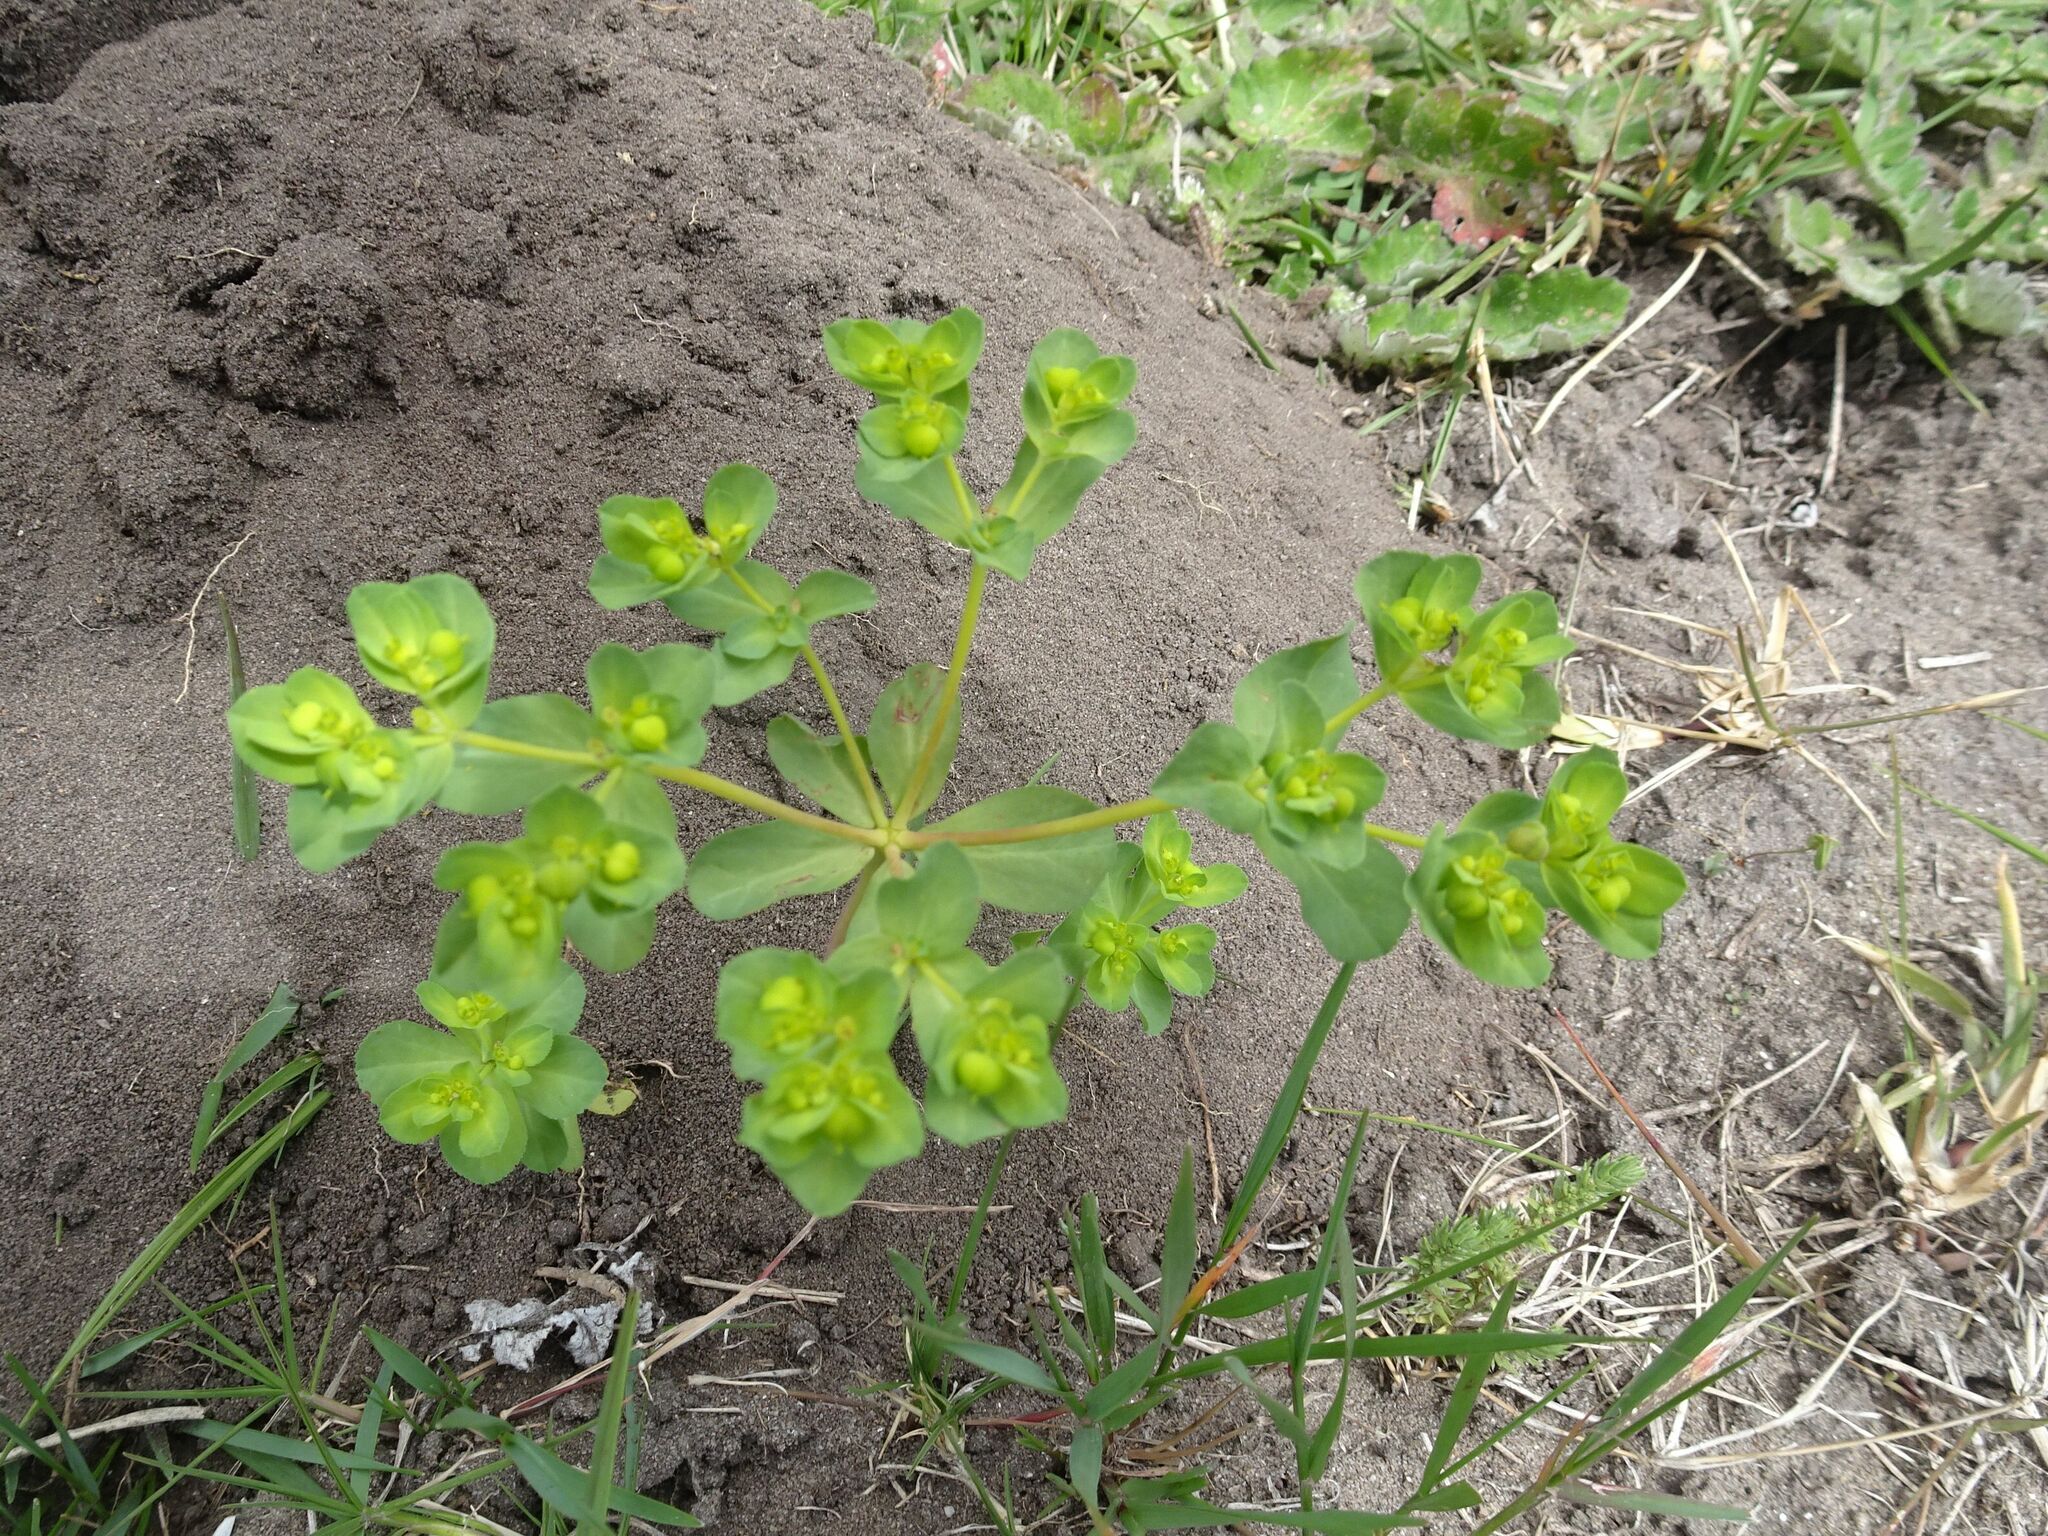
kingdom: Plantae
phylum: Tracheophyta
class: Magnoliopsida
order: Malpighiales
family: Euphorbiaceae
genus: Euphorbia
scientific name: Euphorbia helioscopia
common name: Sun spurge
